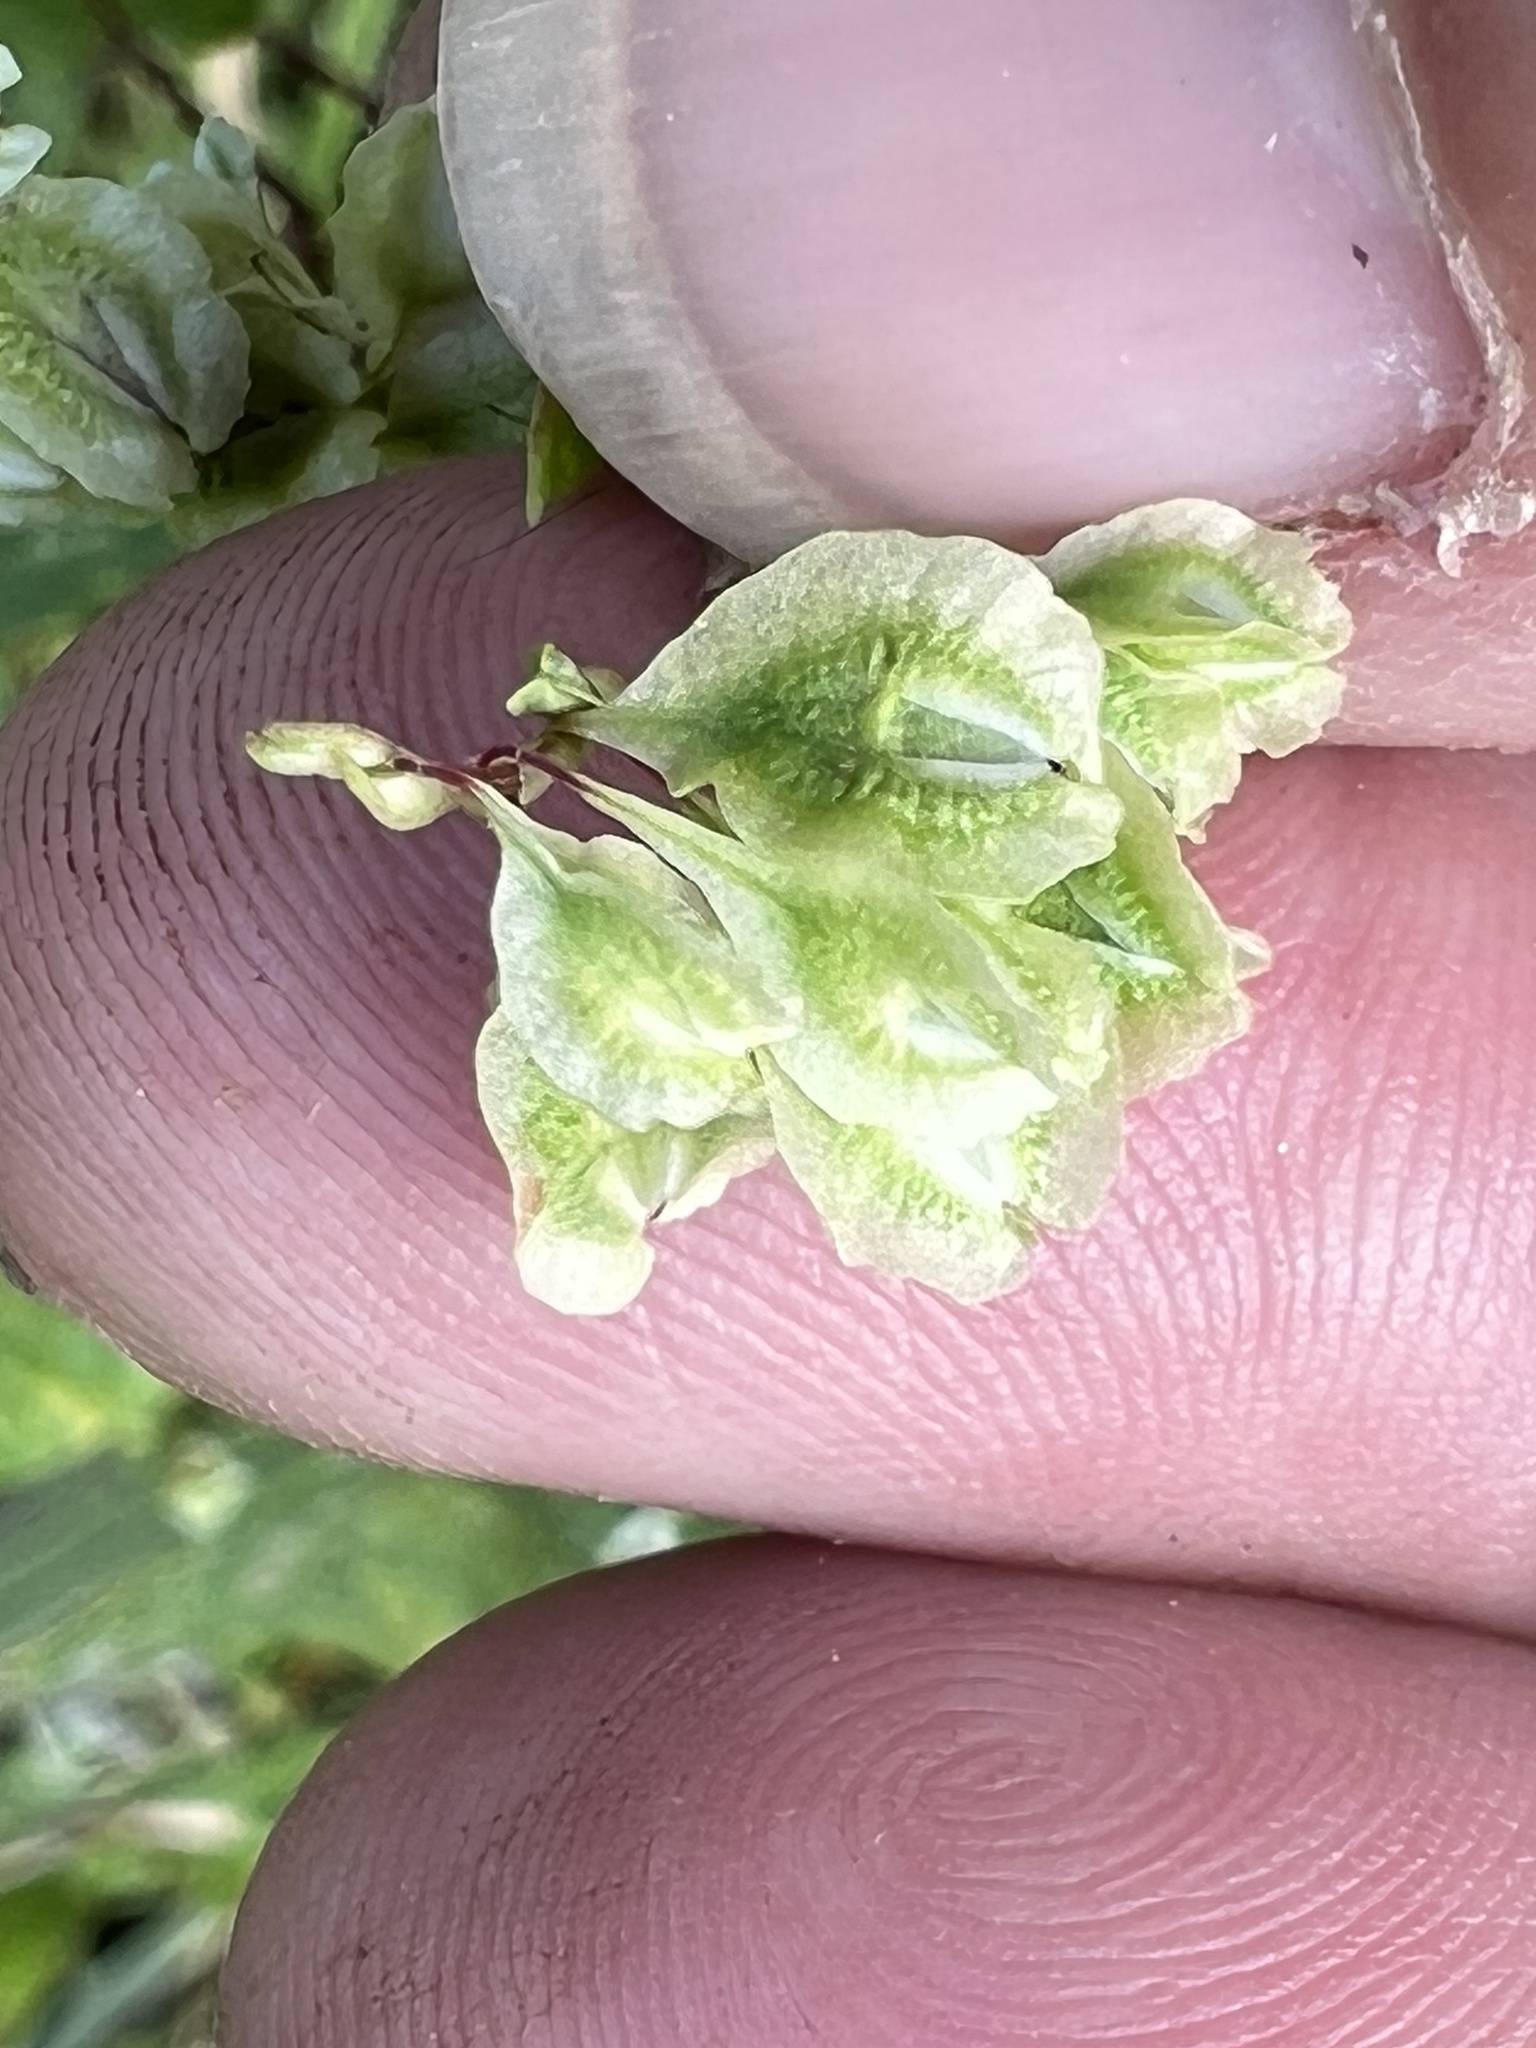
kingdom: Plantae
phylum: Tracheophyta
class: Magnoliopsida
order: Caryophyllales
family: Polygonaceae
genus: Fallopia
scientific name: Fallopia scandens
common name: Climbing false buckwheat
